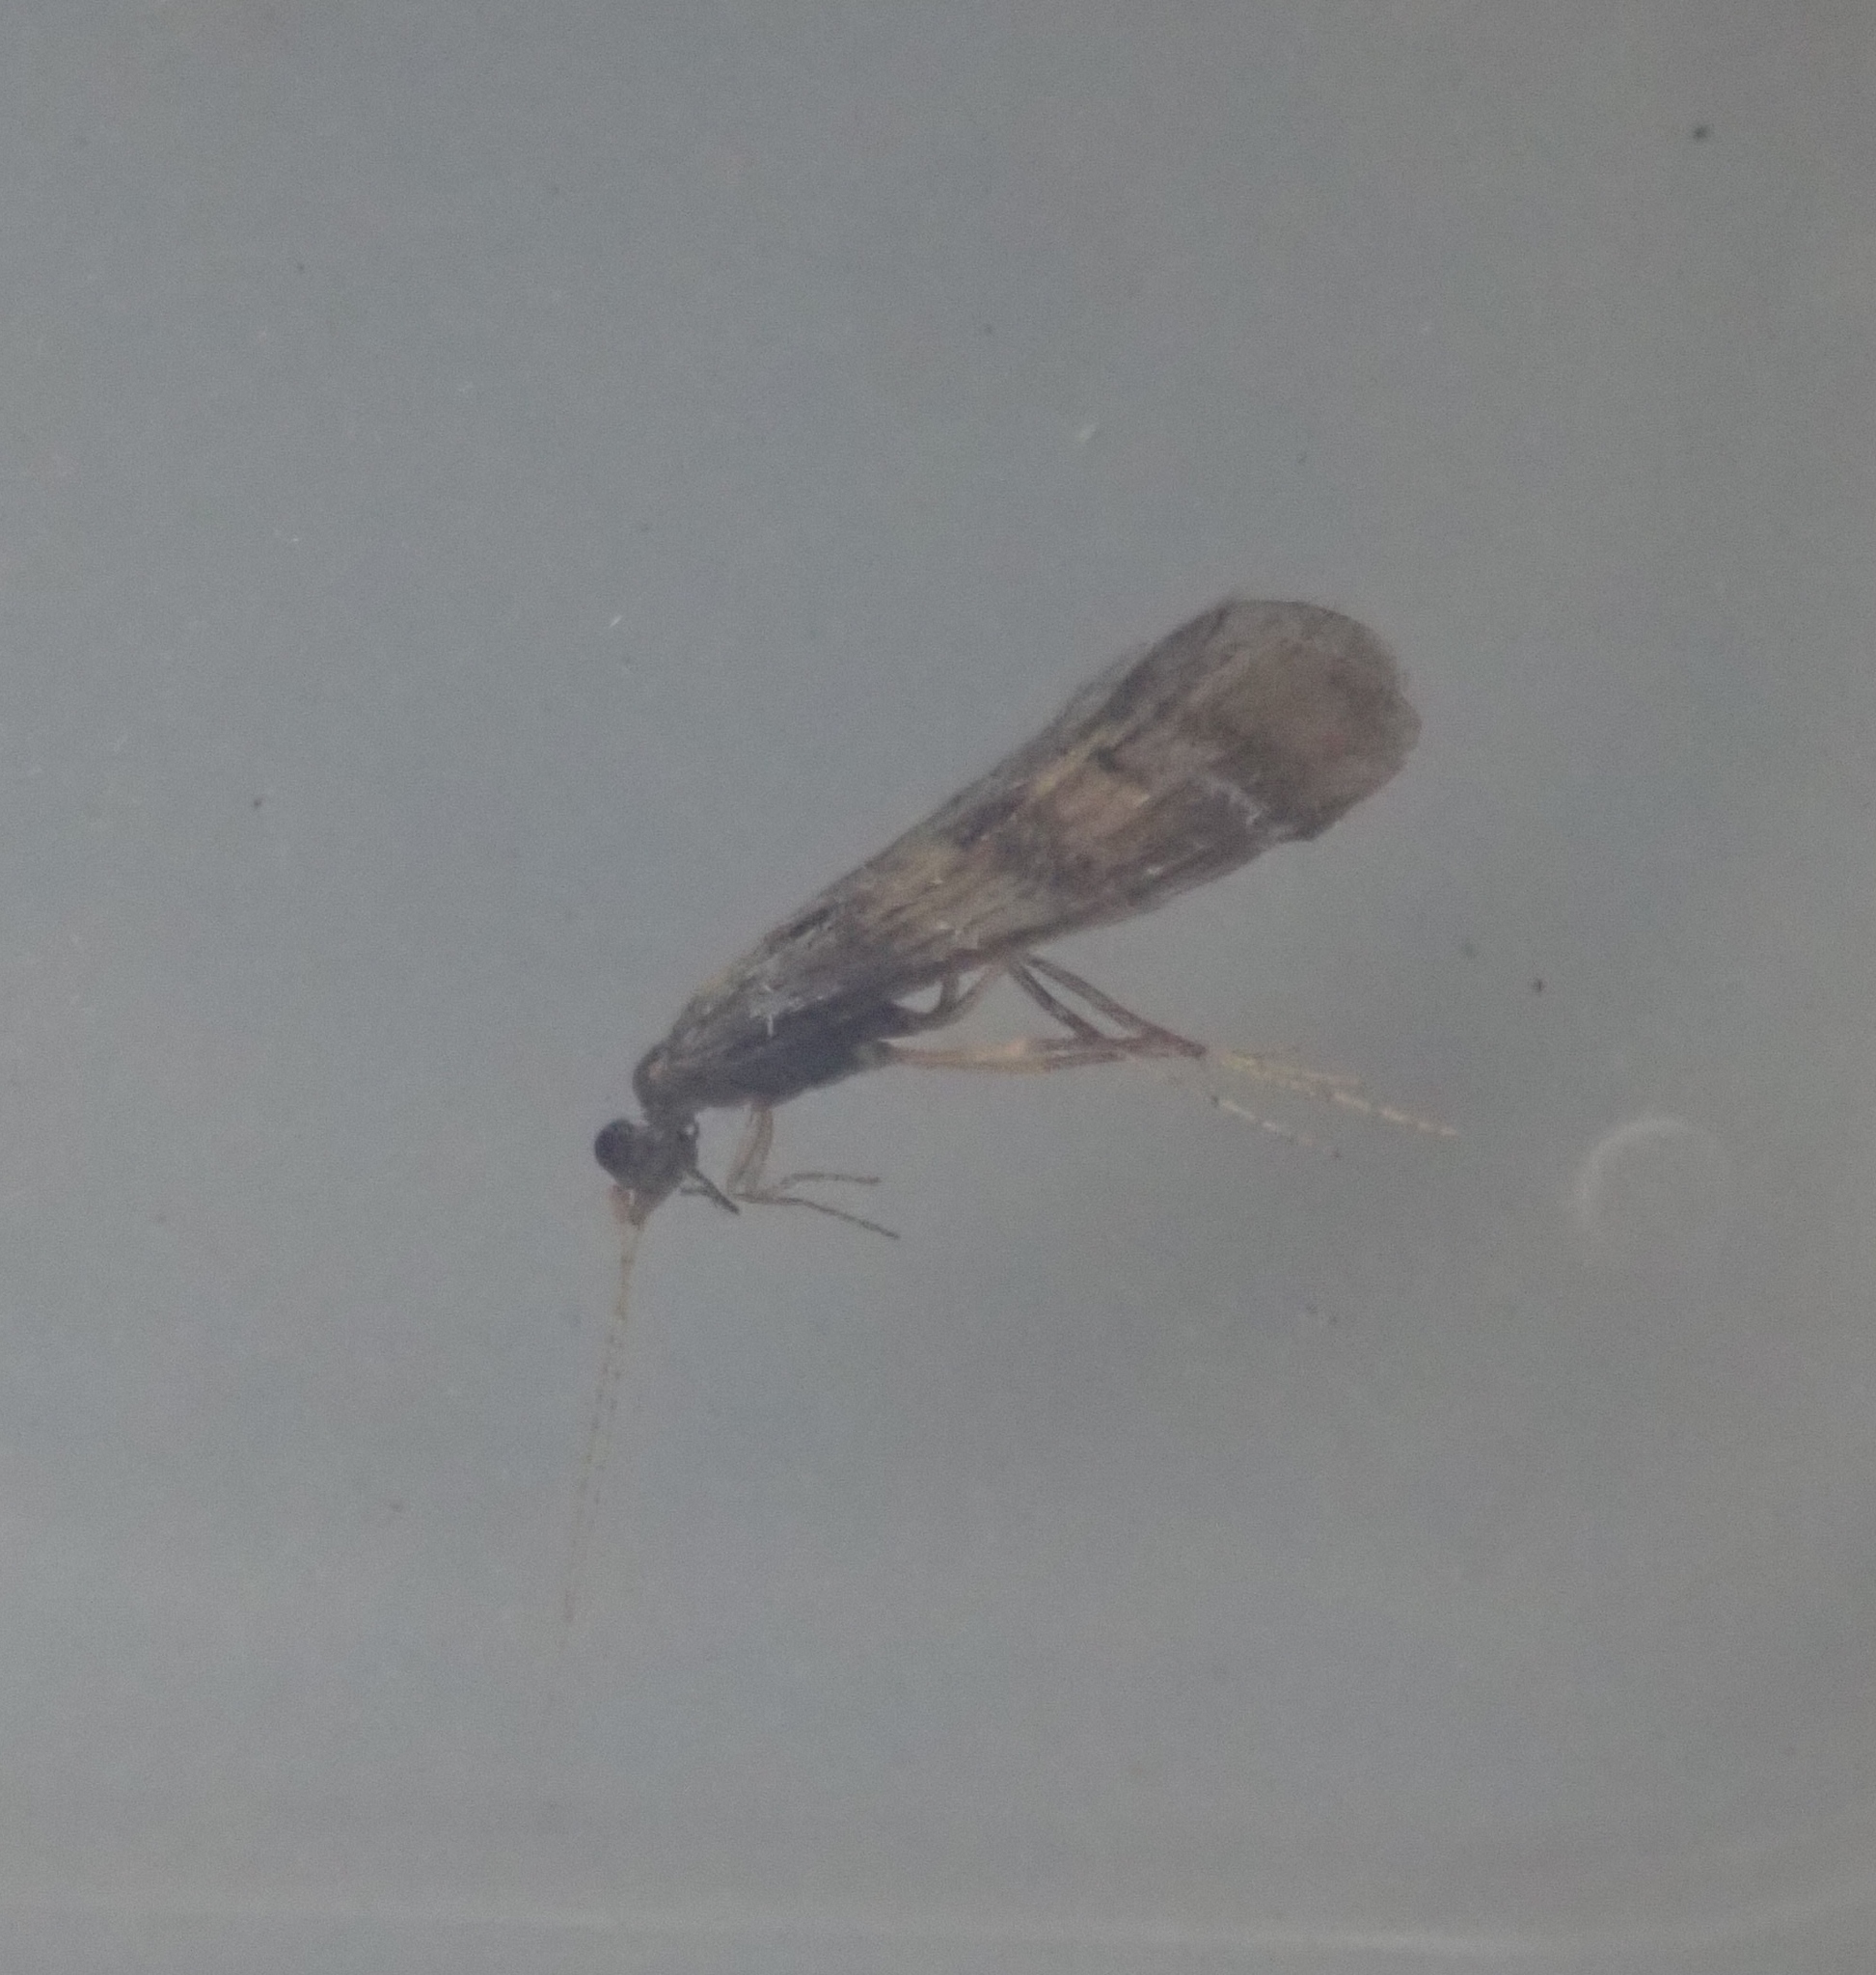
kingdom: Animalia
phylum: Arthropoda
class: Insecta
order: Trichoptera
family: Leptoceridae
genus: Mystacides
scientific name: Mystacides longicornis
